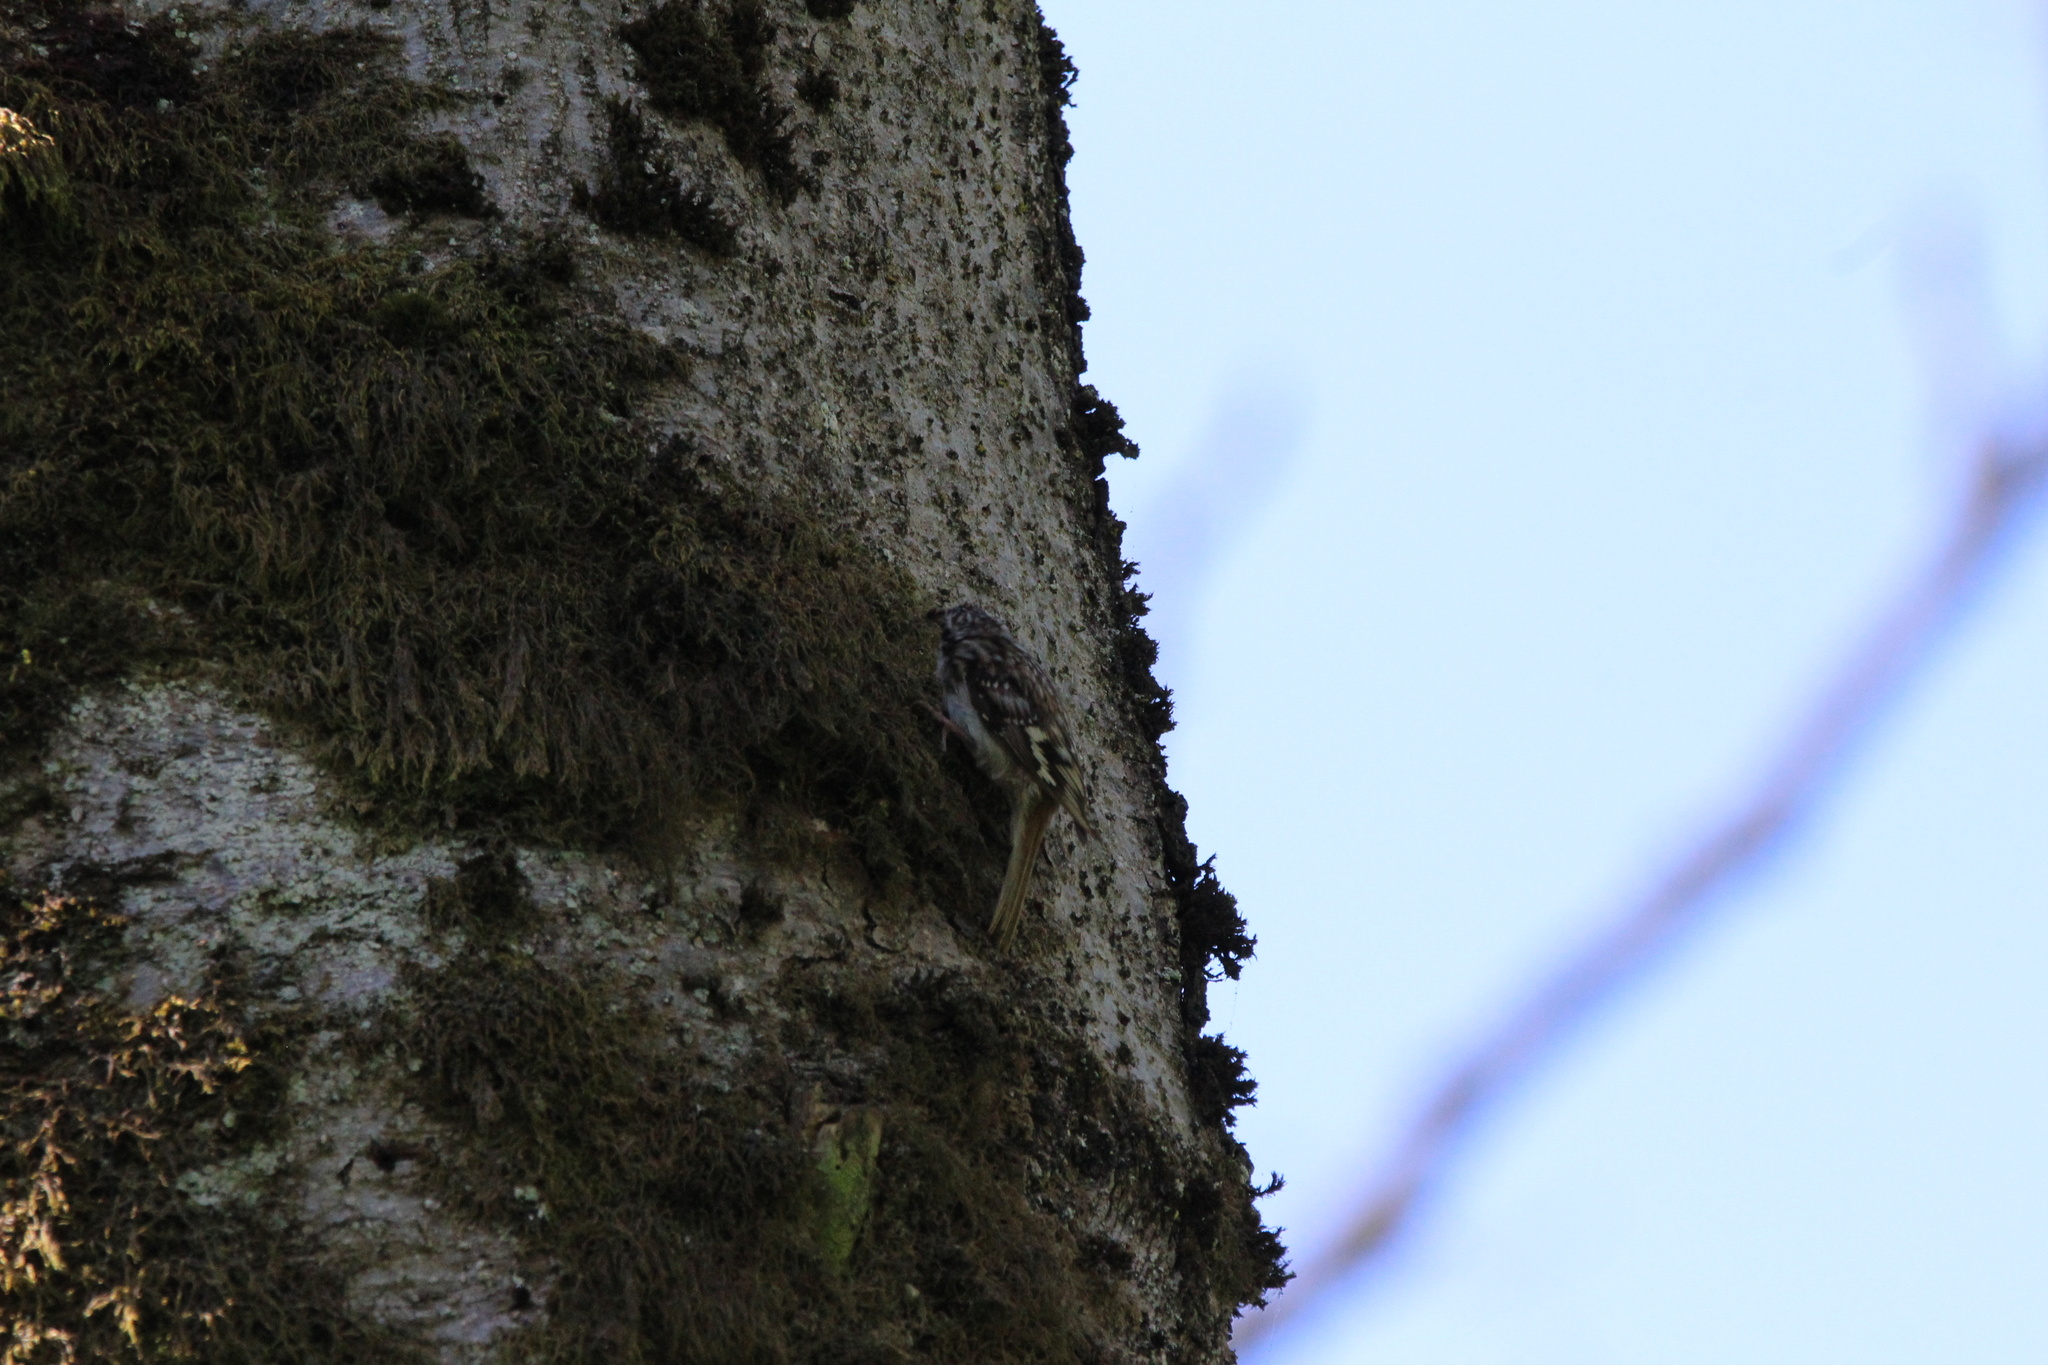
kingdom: Animalia
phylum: Chordata
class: Aves
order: Passeriformes
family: Certhiidae
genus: Certhia
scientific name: Certhia americana
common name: Brown creeper
